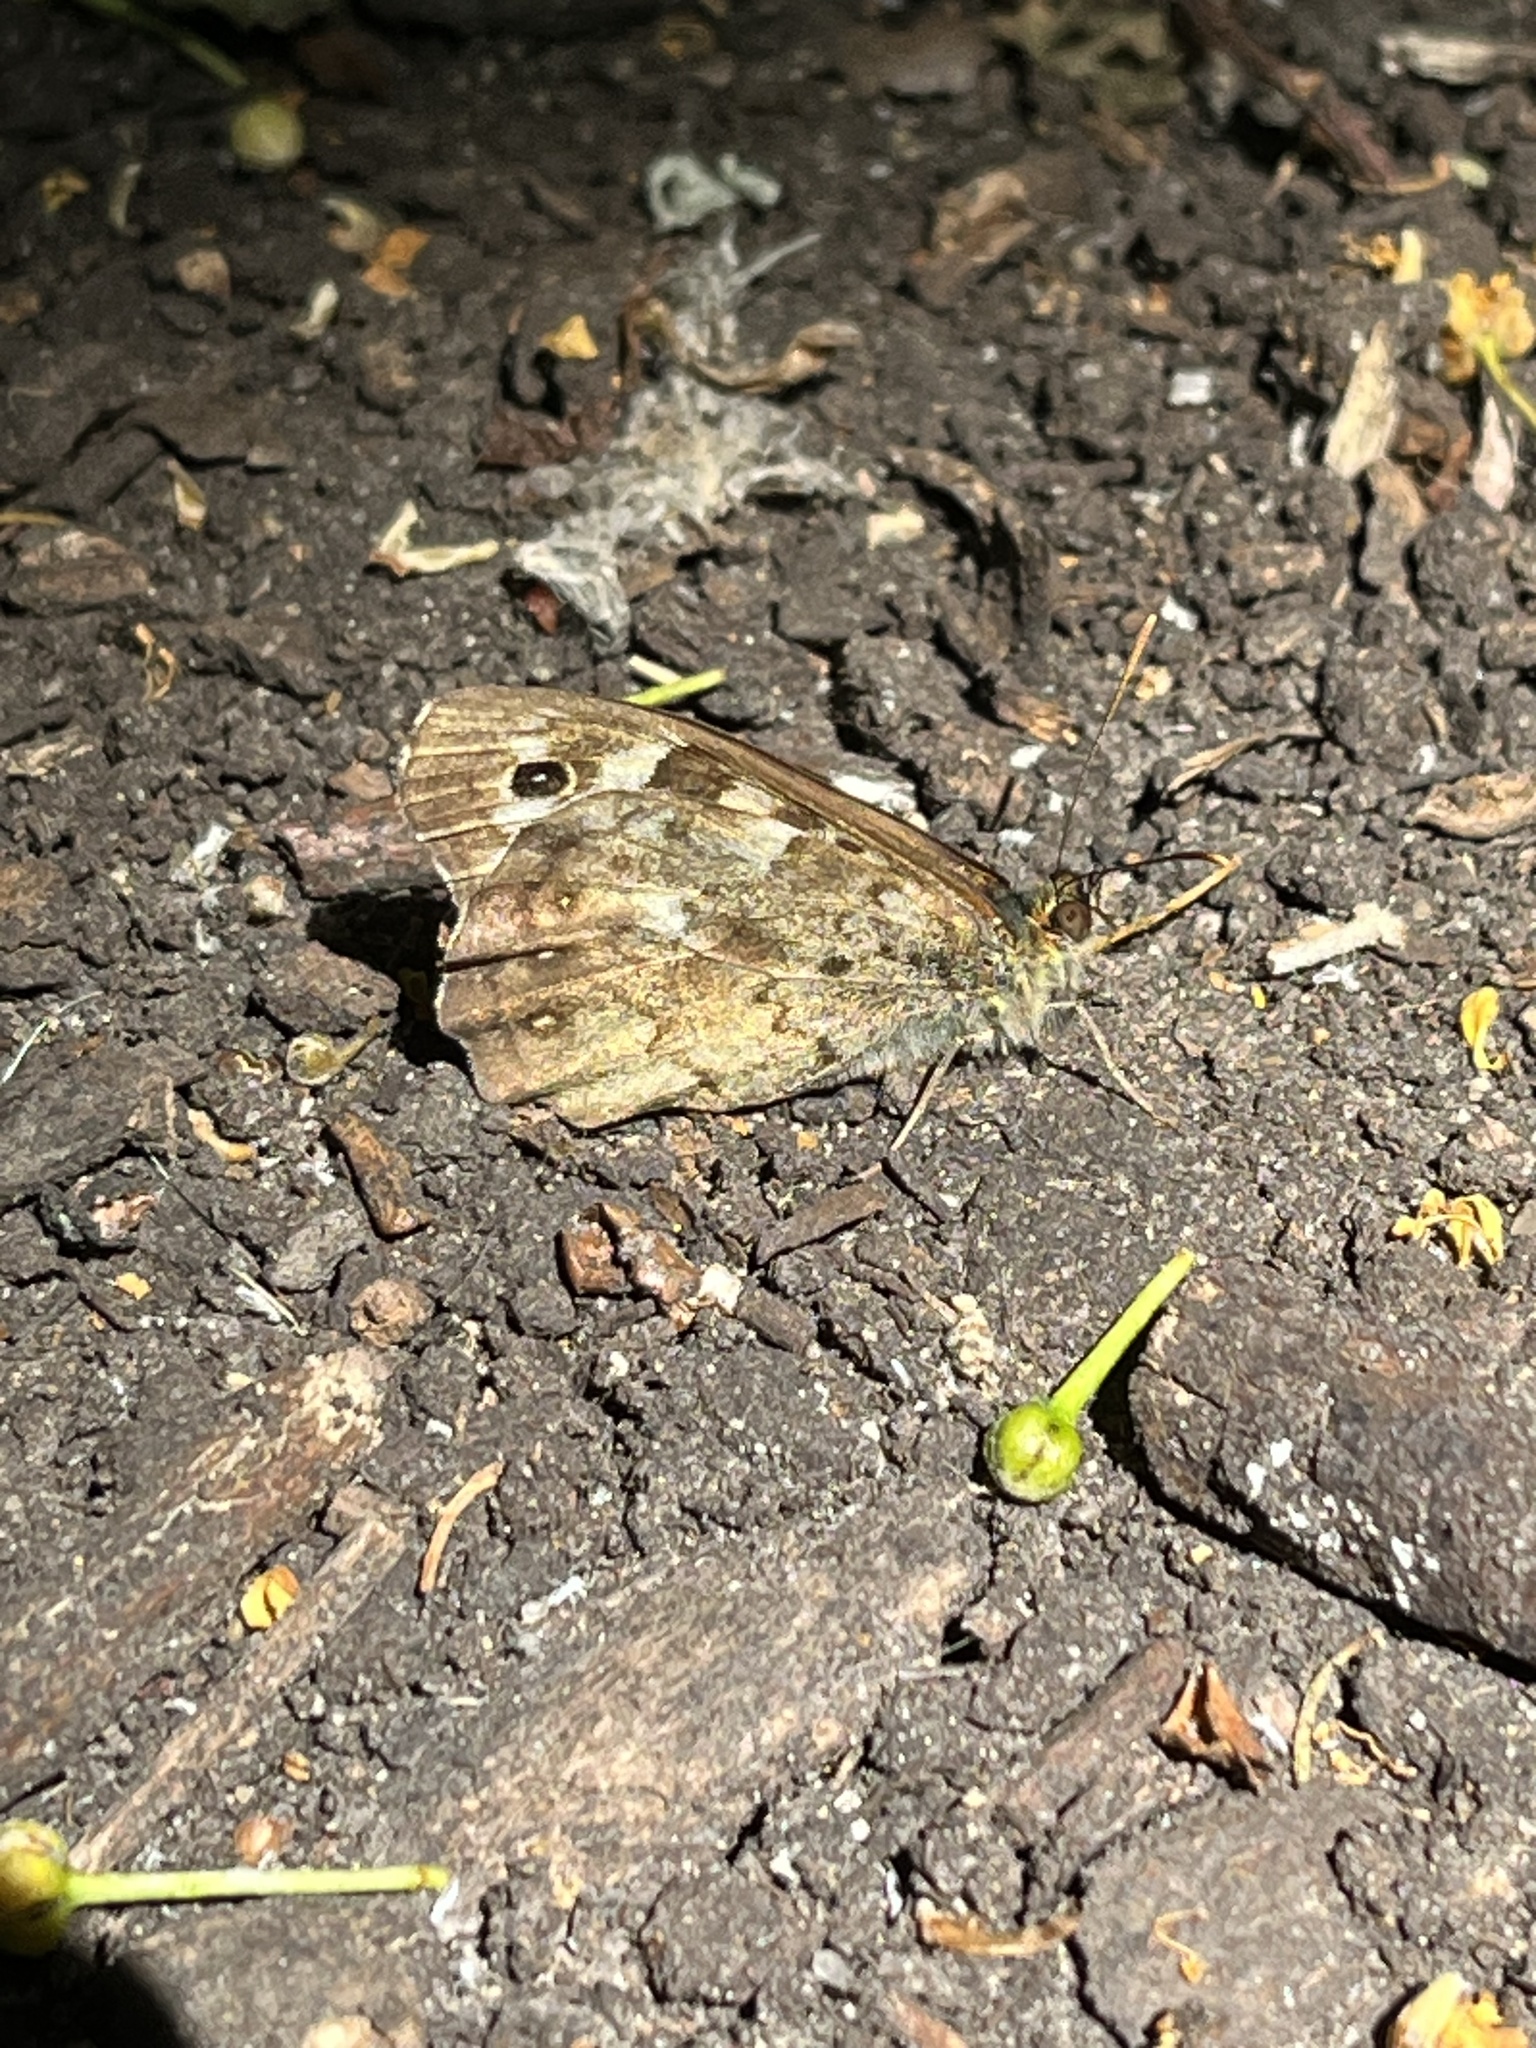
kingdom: Animalia
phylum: Arthropoda
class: Insecta
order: Lepidoptera
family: Nymphalidae
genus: Pararge
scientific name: Pararge aegeria
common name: Speckled wood
